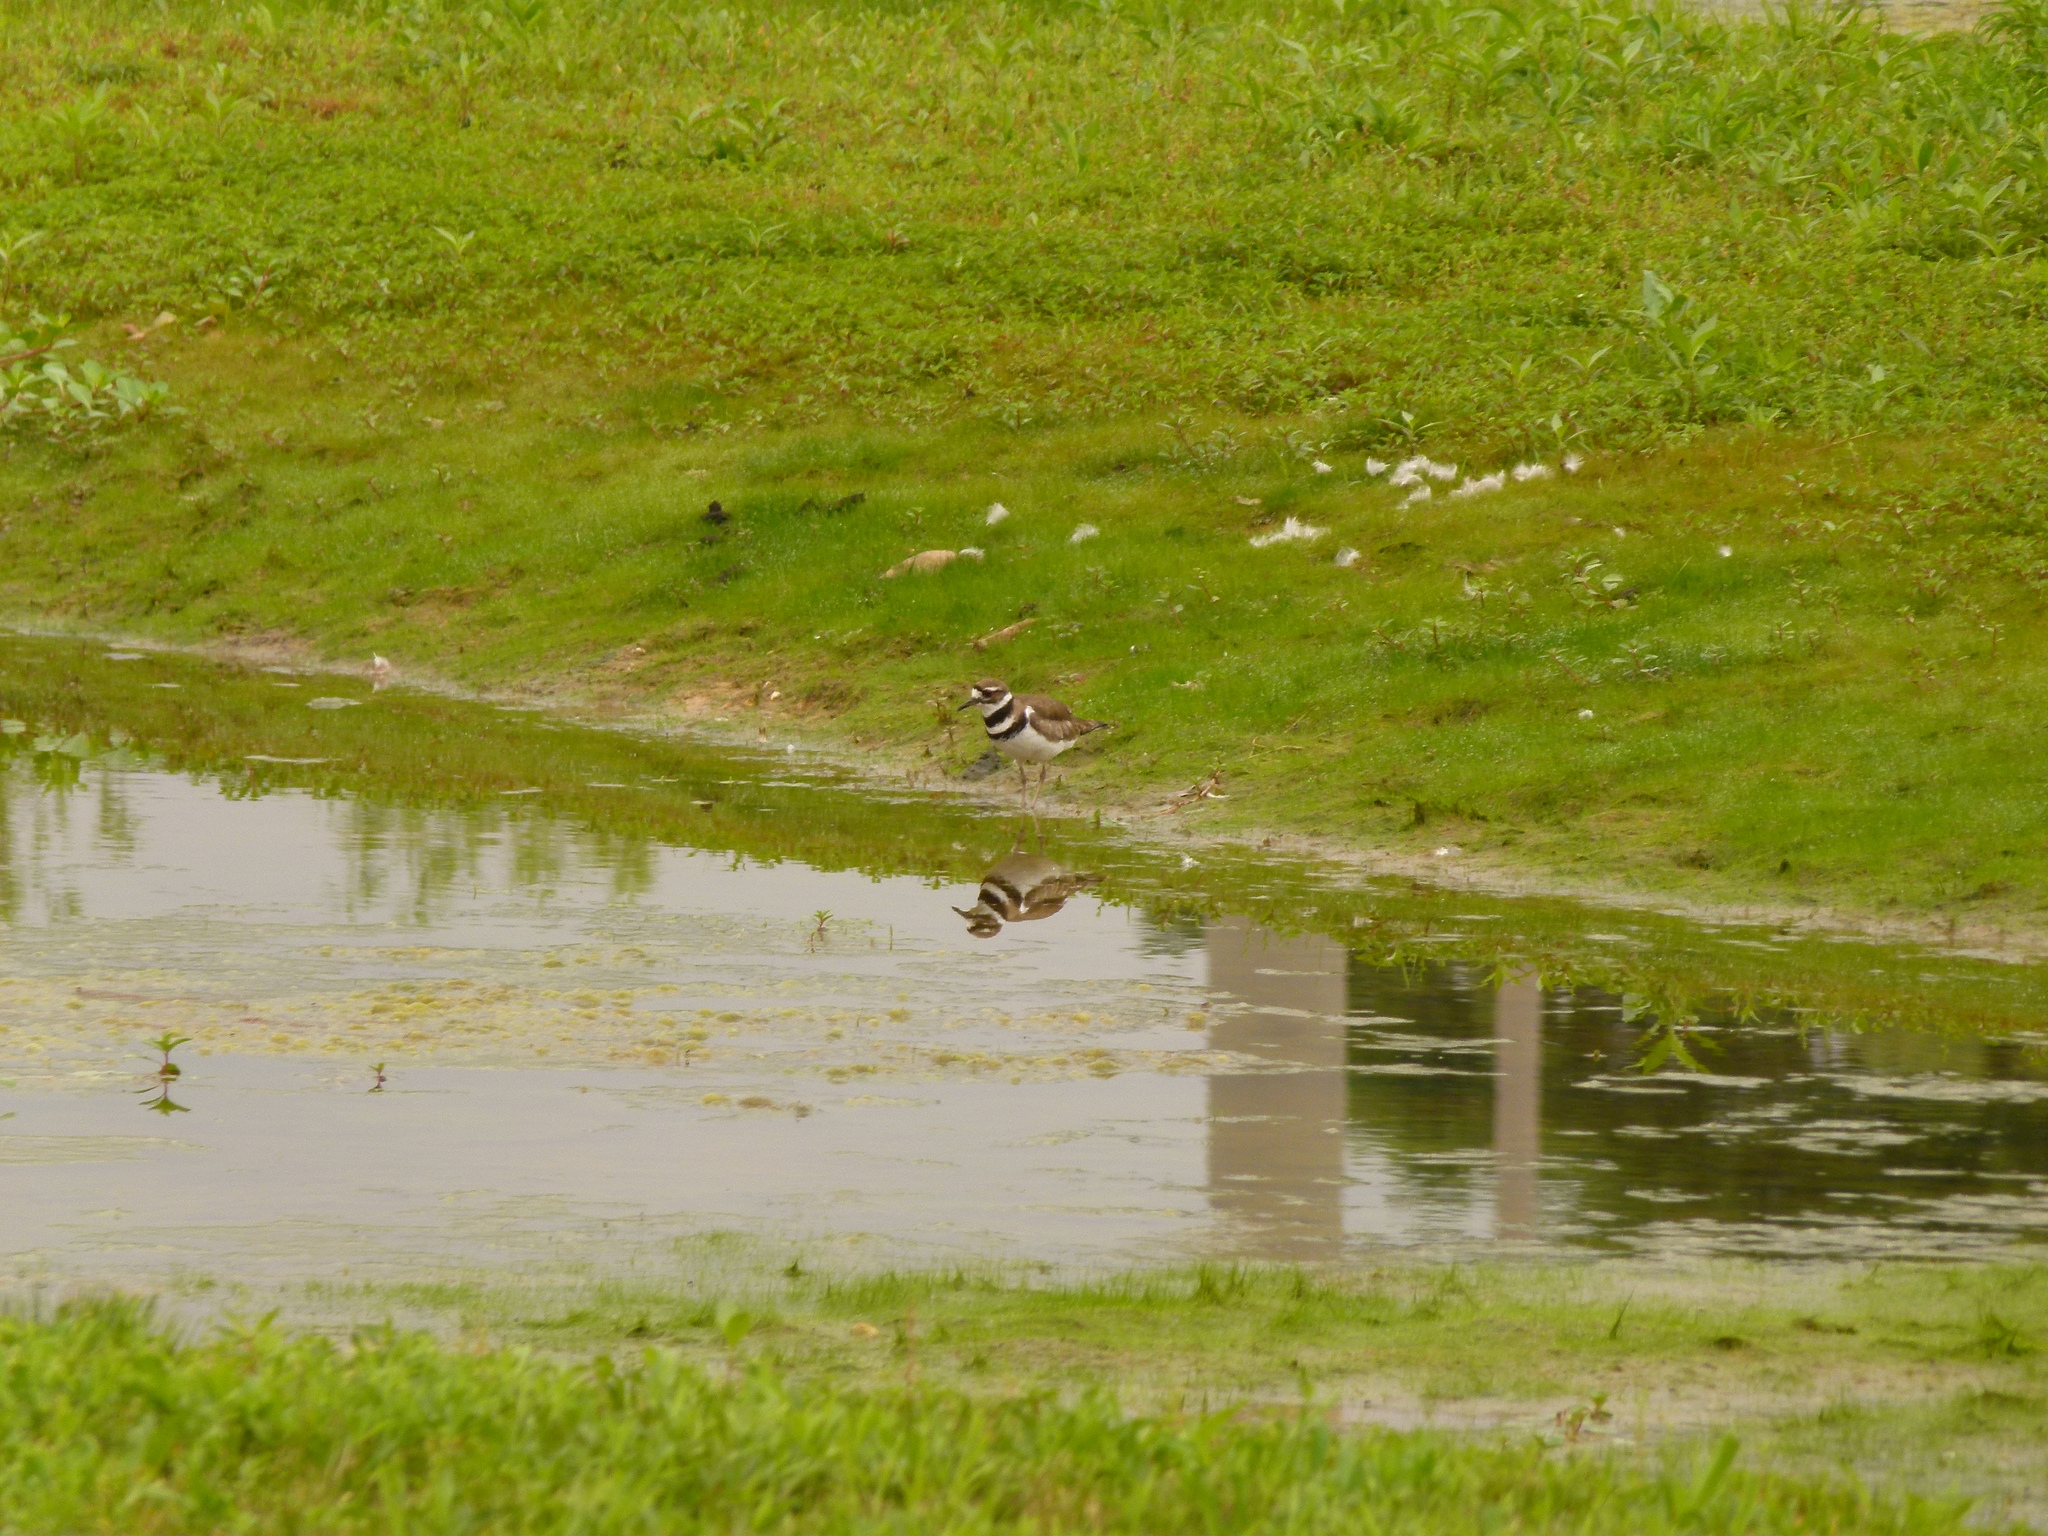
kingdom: Animalia
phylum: Chordata
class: Aves
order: Charadriiformes
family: Charadriidae
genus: Charadrius
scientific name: Charadrius vociferus
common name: Killdeer
